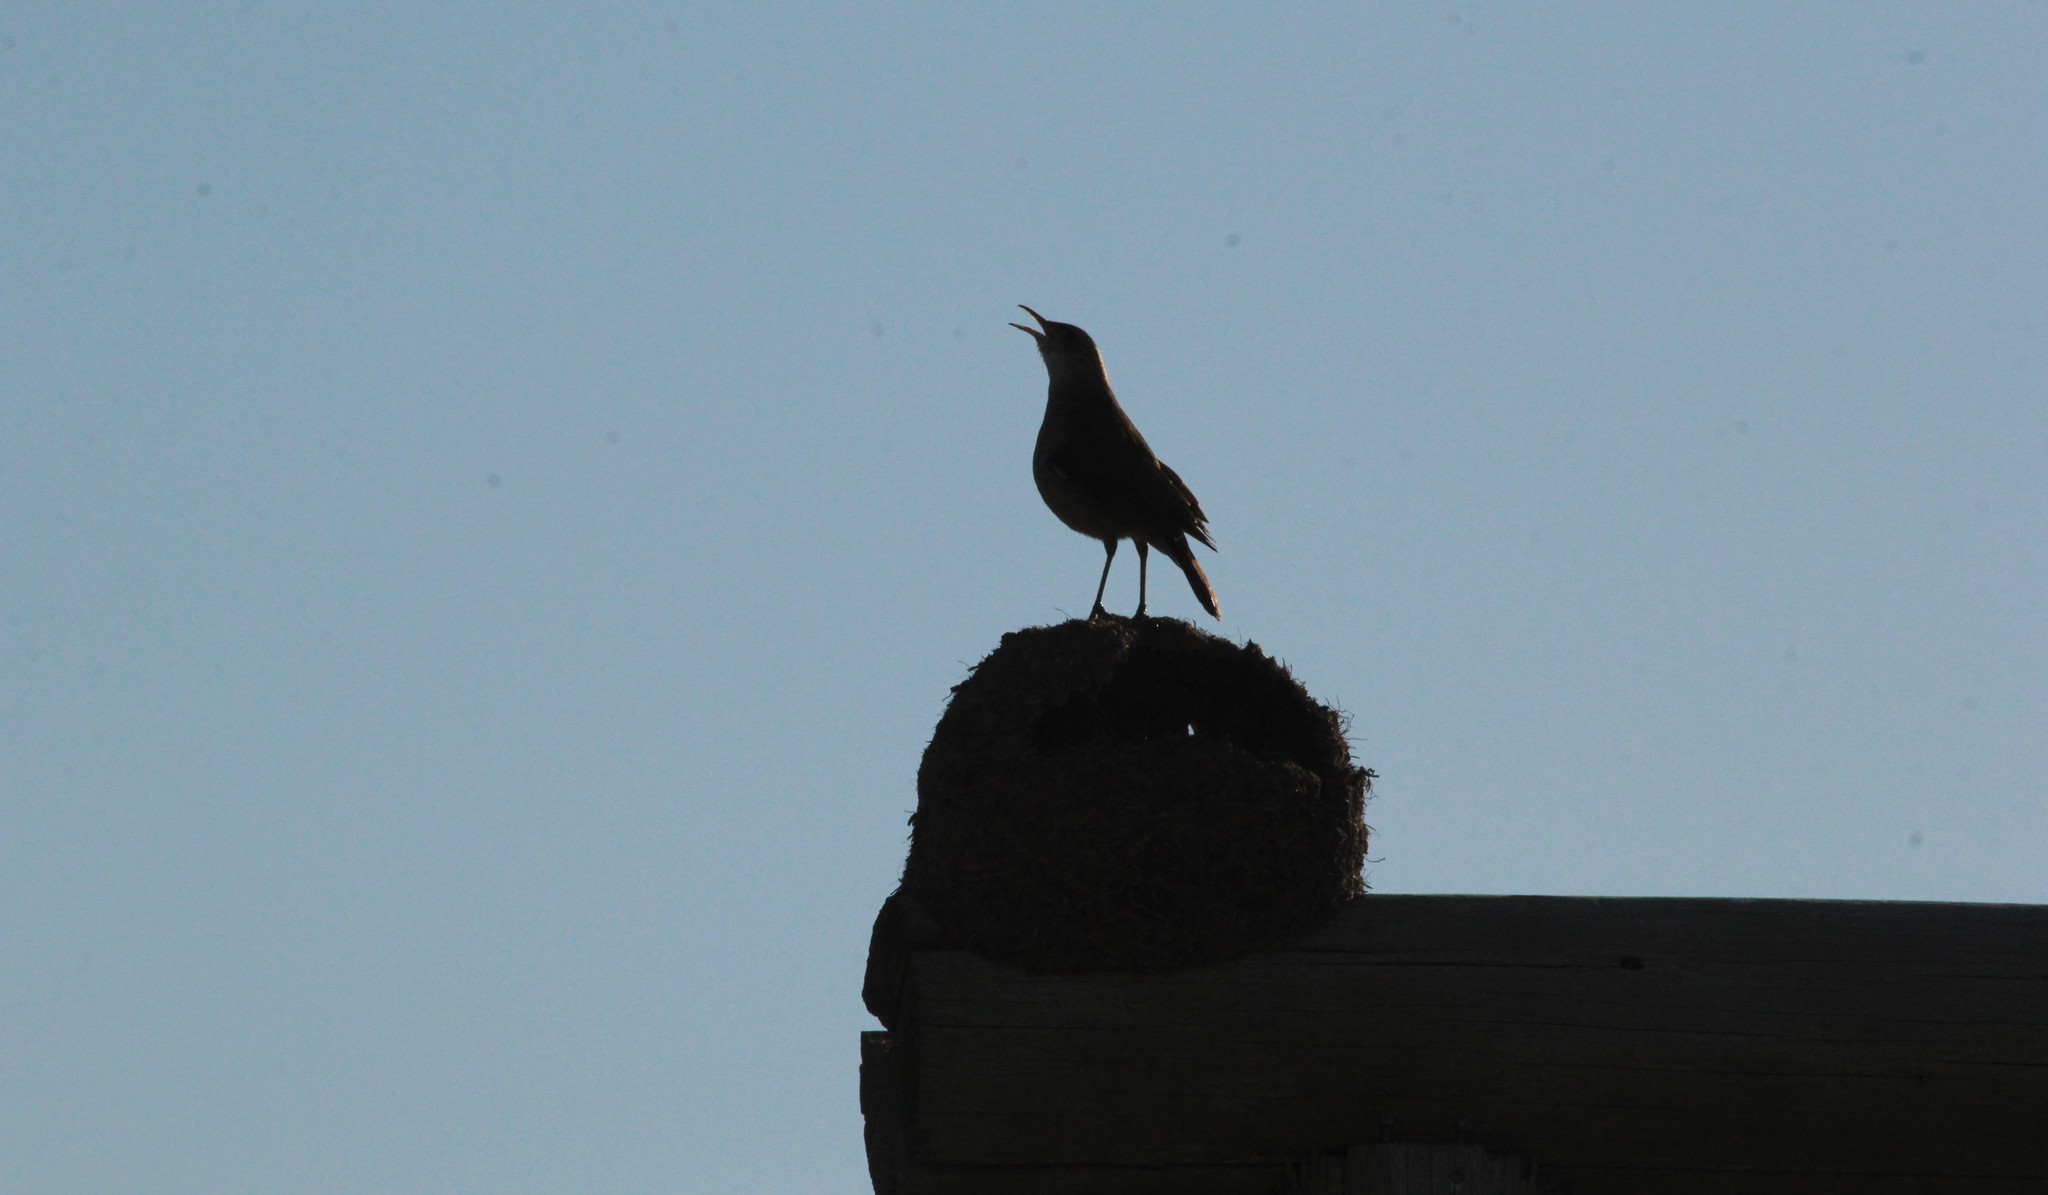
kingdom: Animalia
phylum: Chordata
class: Aves
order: Passeriformes
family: Furnariidae
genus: Furnarius
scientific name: Furnarius rufus
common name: Rufous hornero
